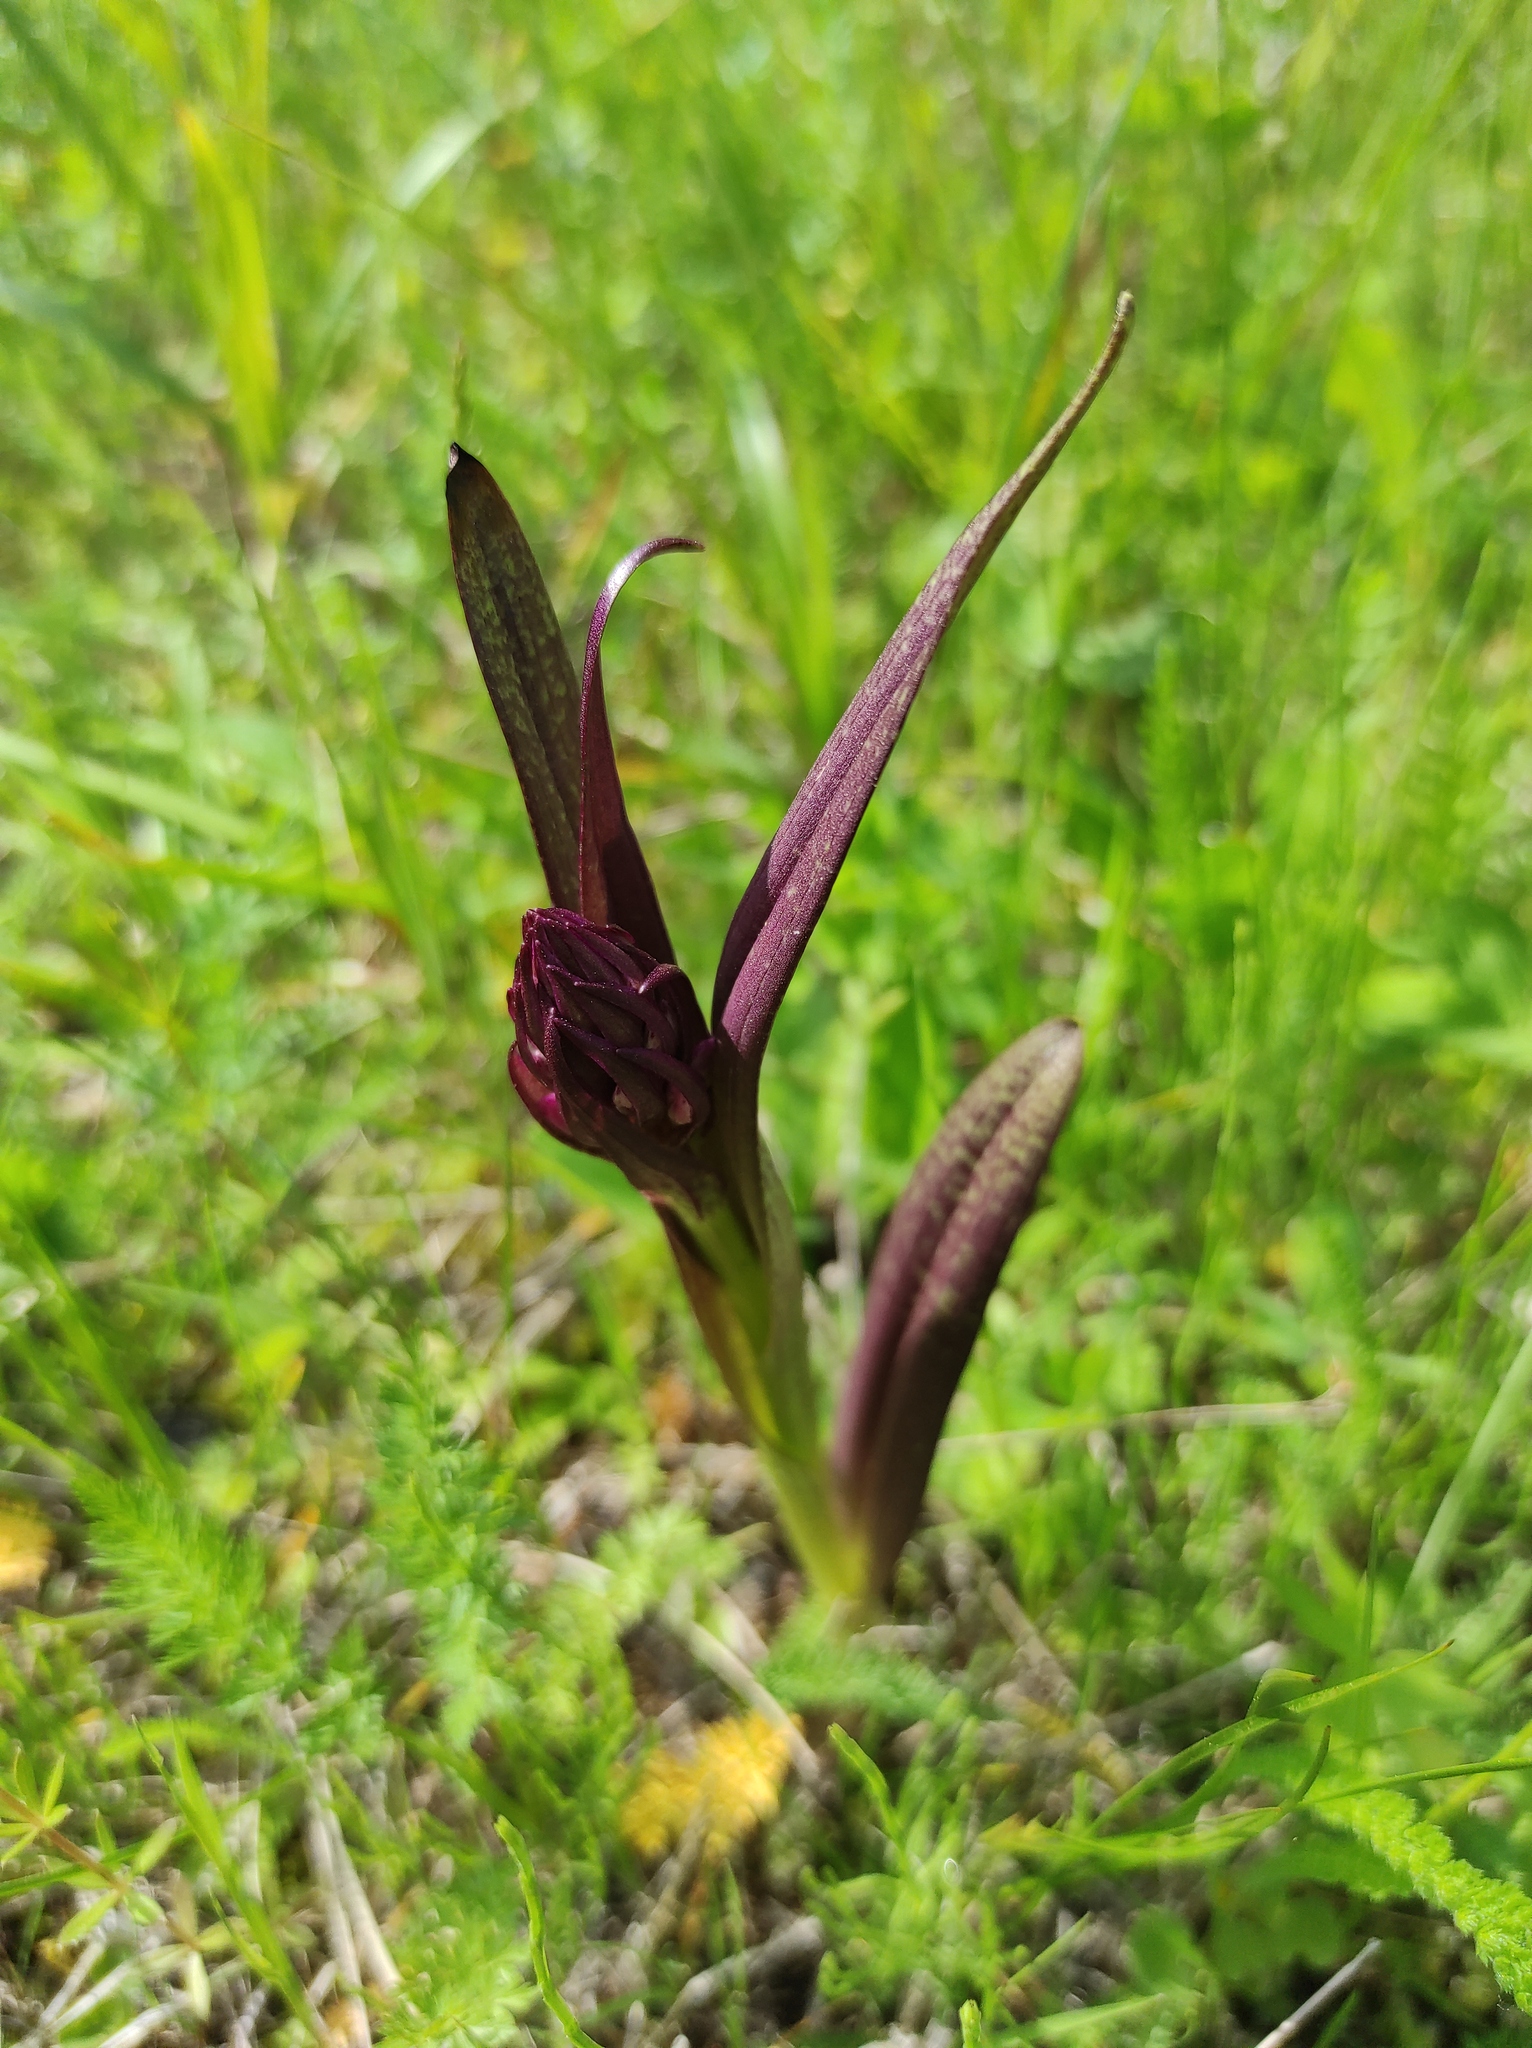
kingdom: Plantae
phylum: Tracheophyta
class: Liliopsida
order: Asparagales
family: Orchidaceae
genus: Dactylorhiza
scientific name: Dactylorhiza incarnata
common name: Early marsh-orchid
